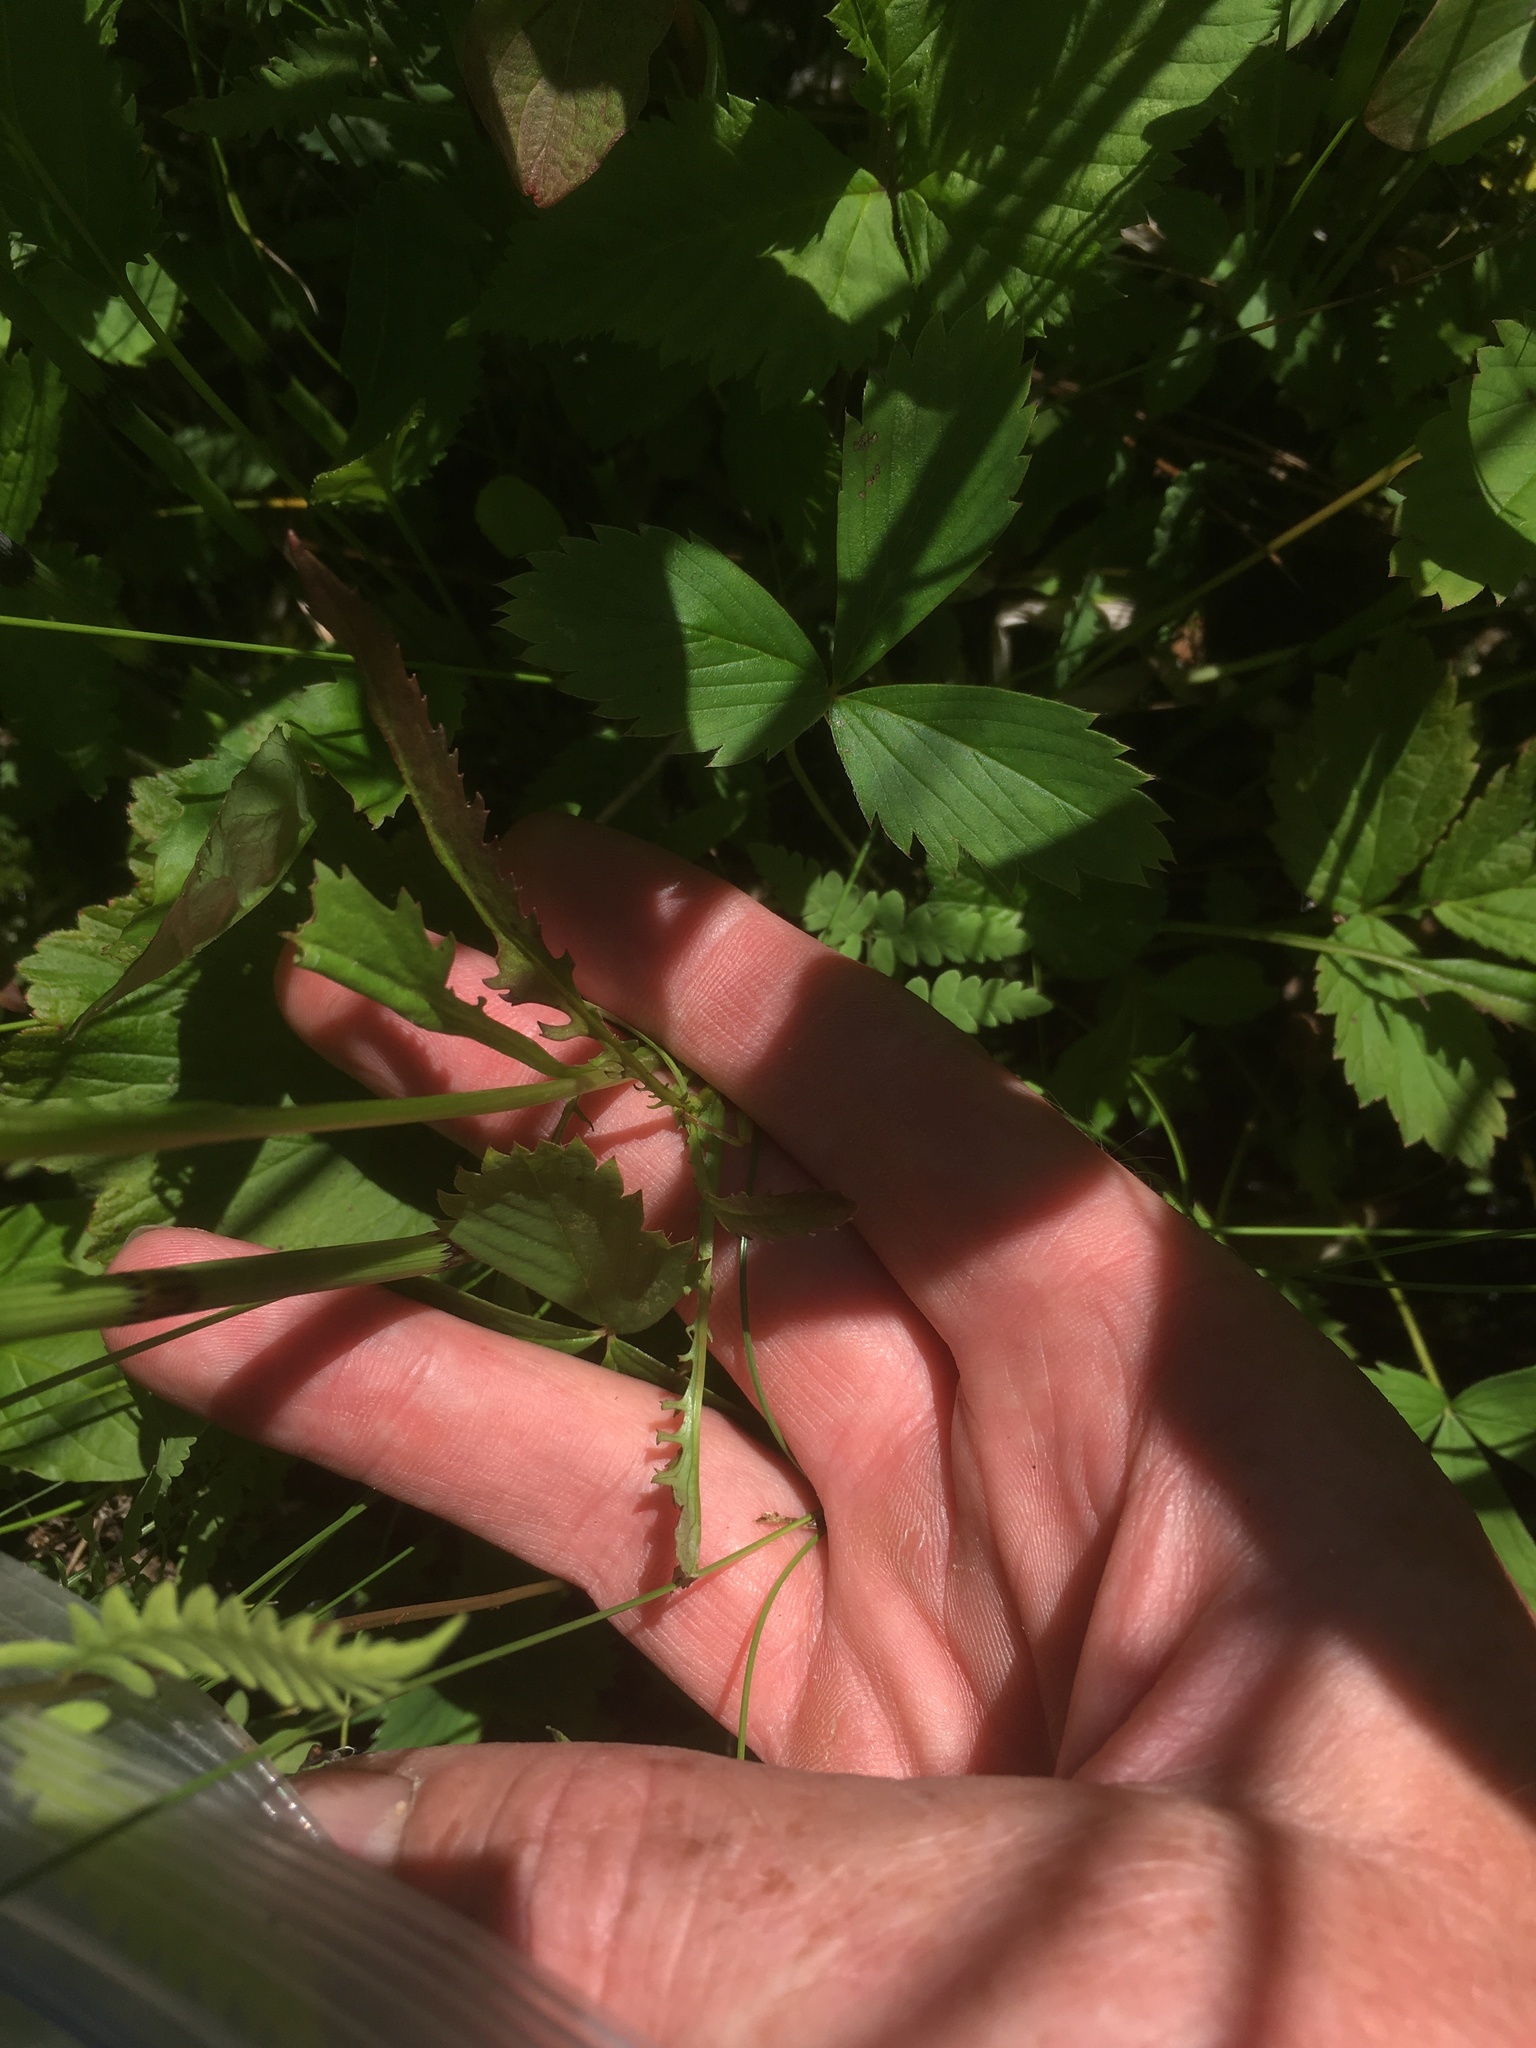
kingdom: Plantae
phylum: Tracheophyta
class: Magnoliopsida
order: Asterales
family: Asteraceae
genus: Packera
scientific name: Packera aurea
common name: Golden groundsel
